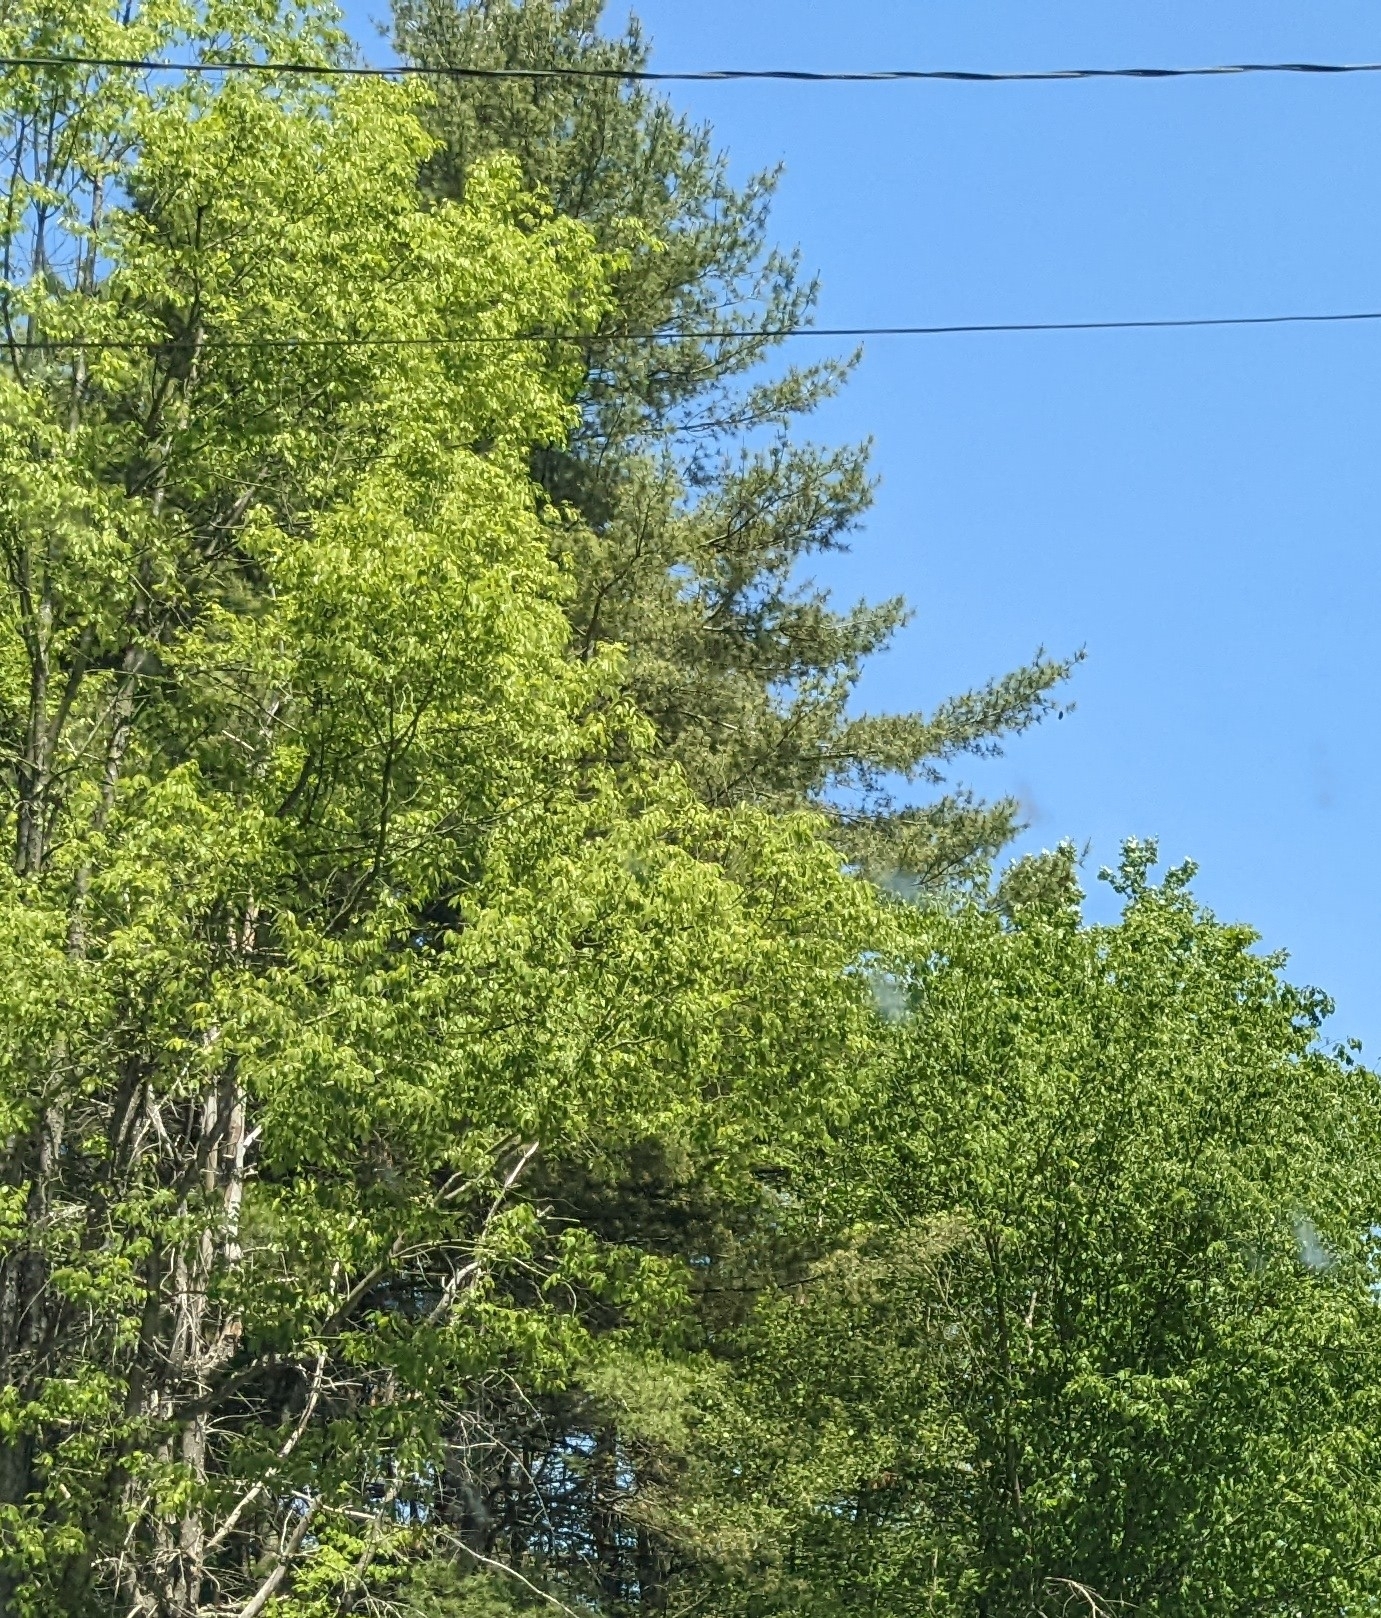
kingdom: Plantae
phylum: Tracheophyta
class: Pinopsida
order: Pinales
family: Pinaceae
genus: Pinus
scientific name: Pinus strobus
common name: Weymouth pine
